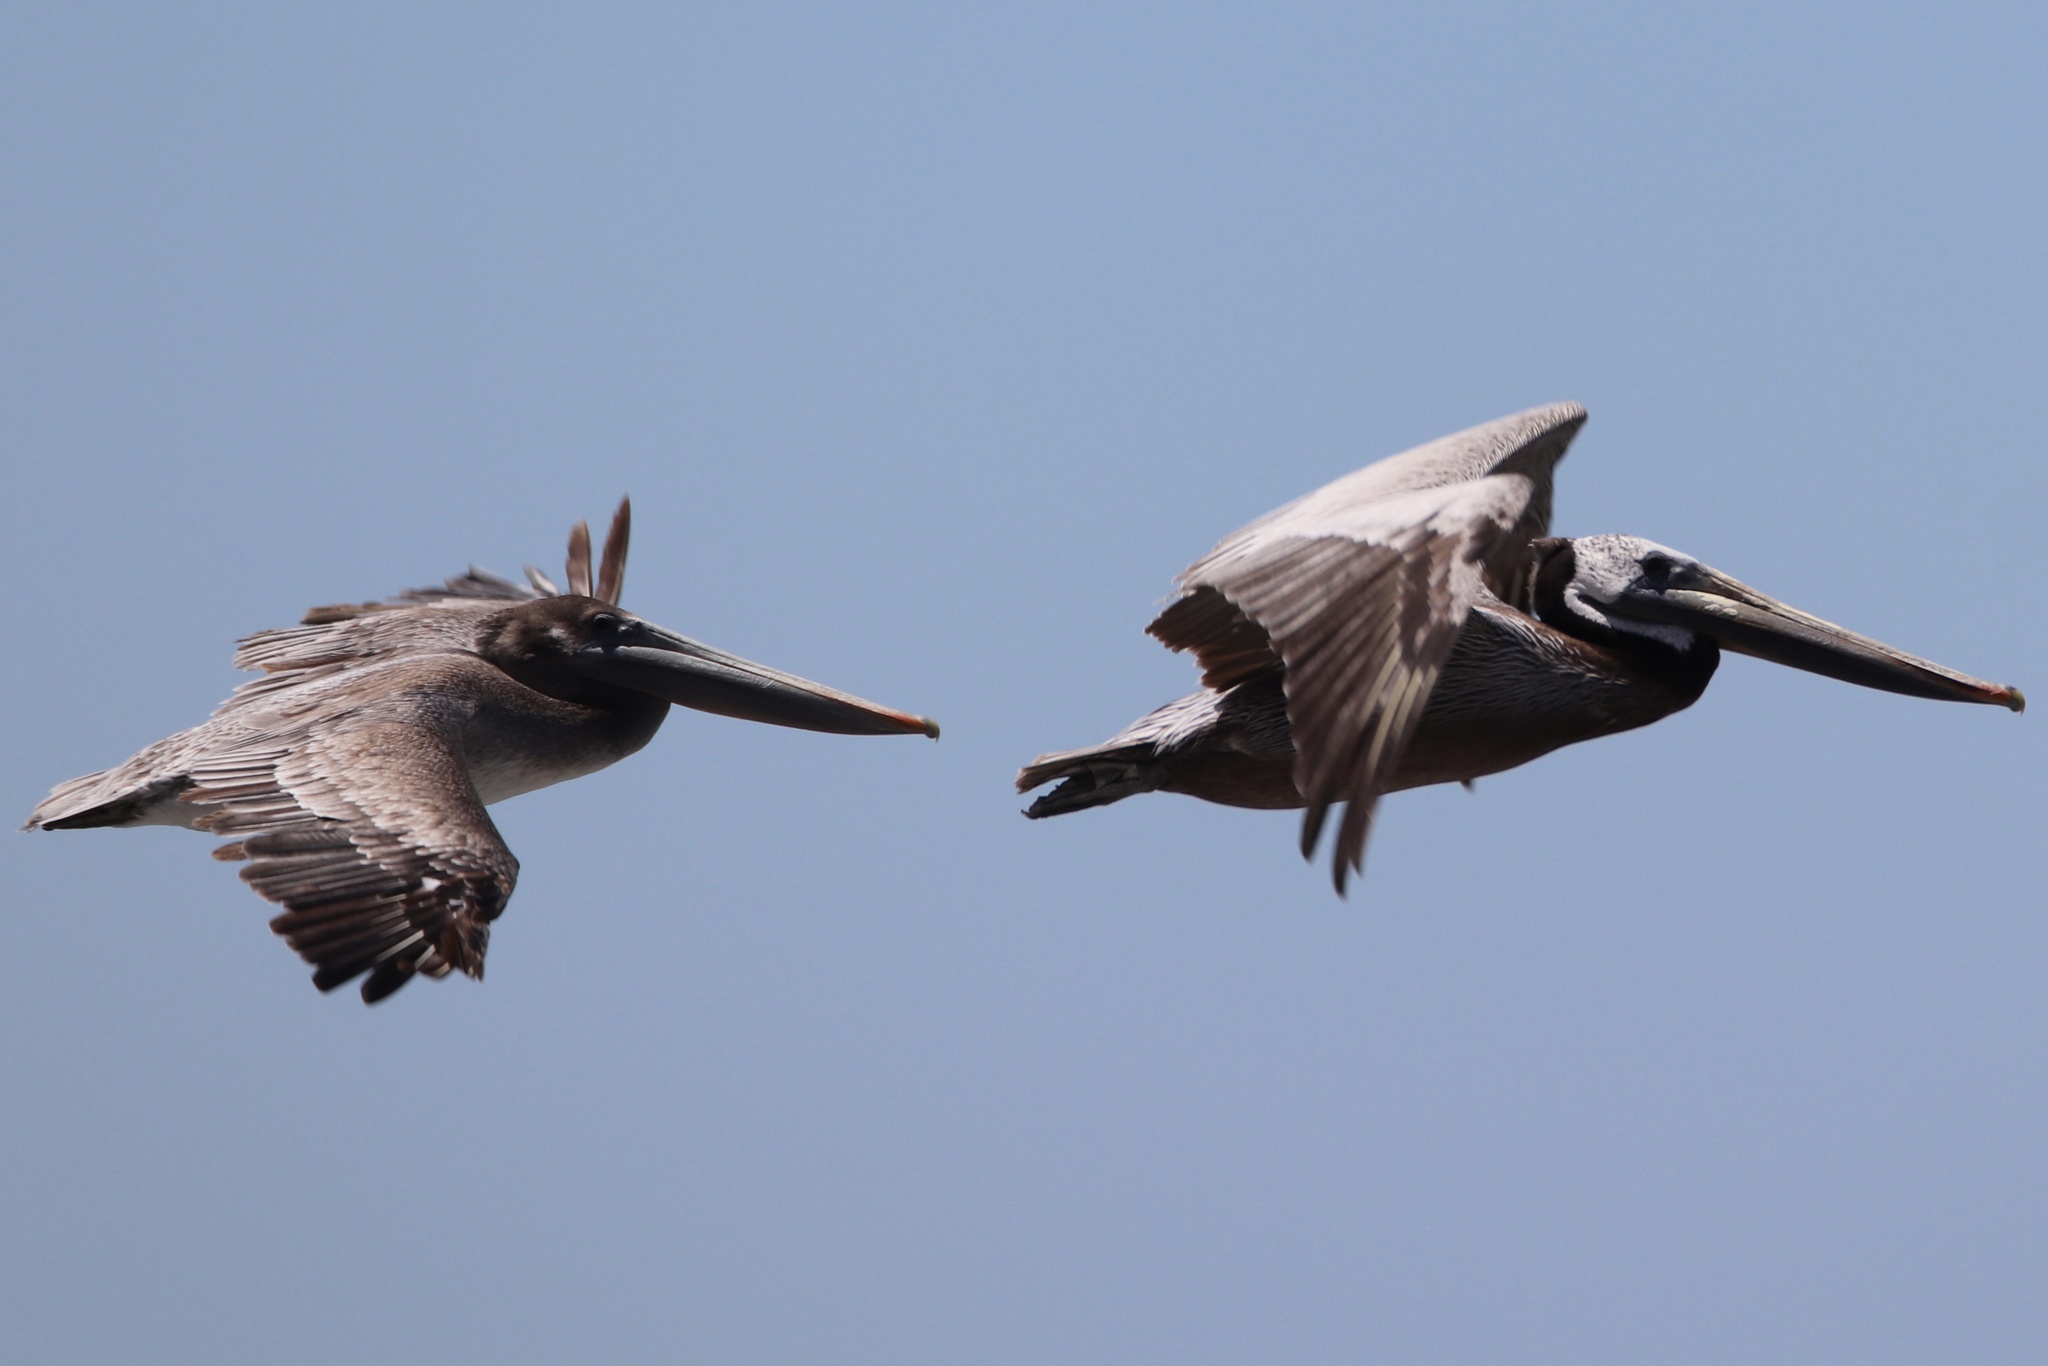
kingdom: Animalia
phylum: Chordata
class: Aves
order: Pelecaniformes
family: Pelecanidae
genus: Pelecanus
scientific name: Pelecanus occidentalis
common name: Brown pelican
